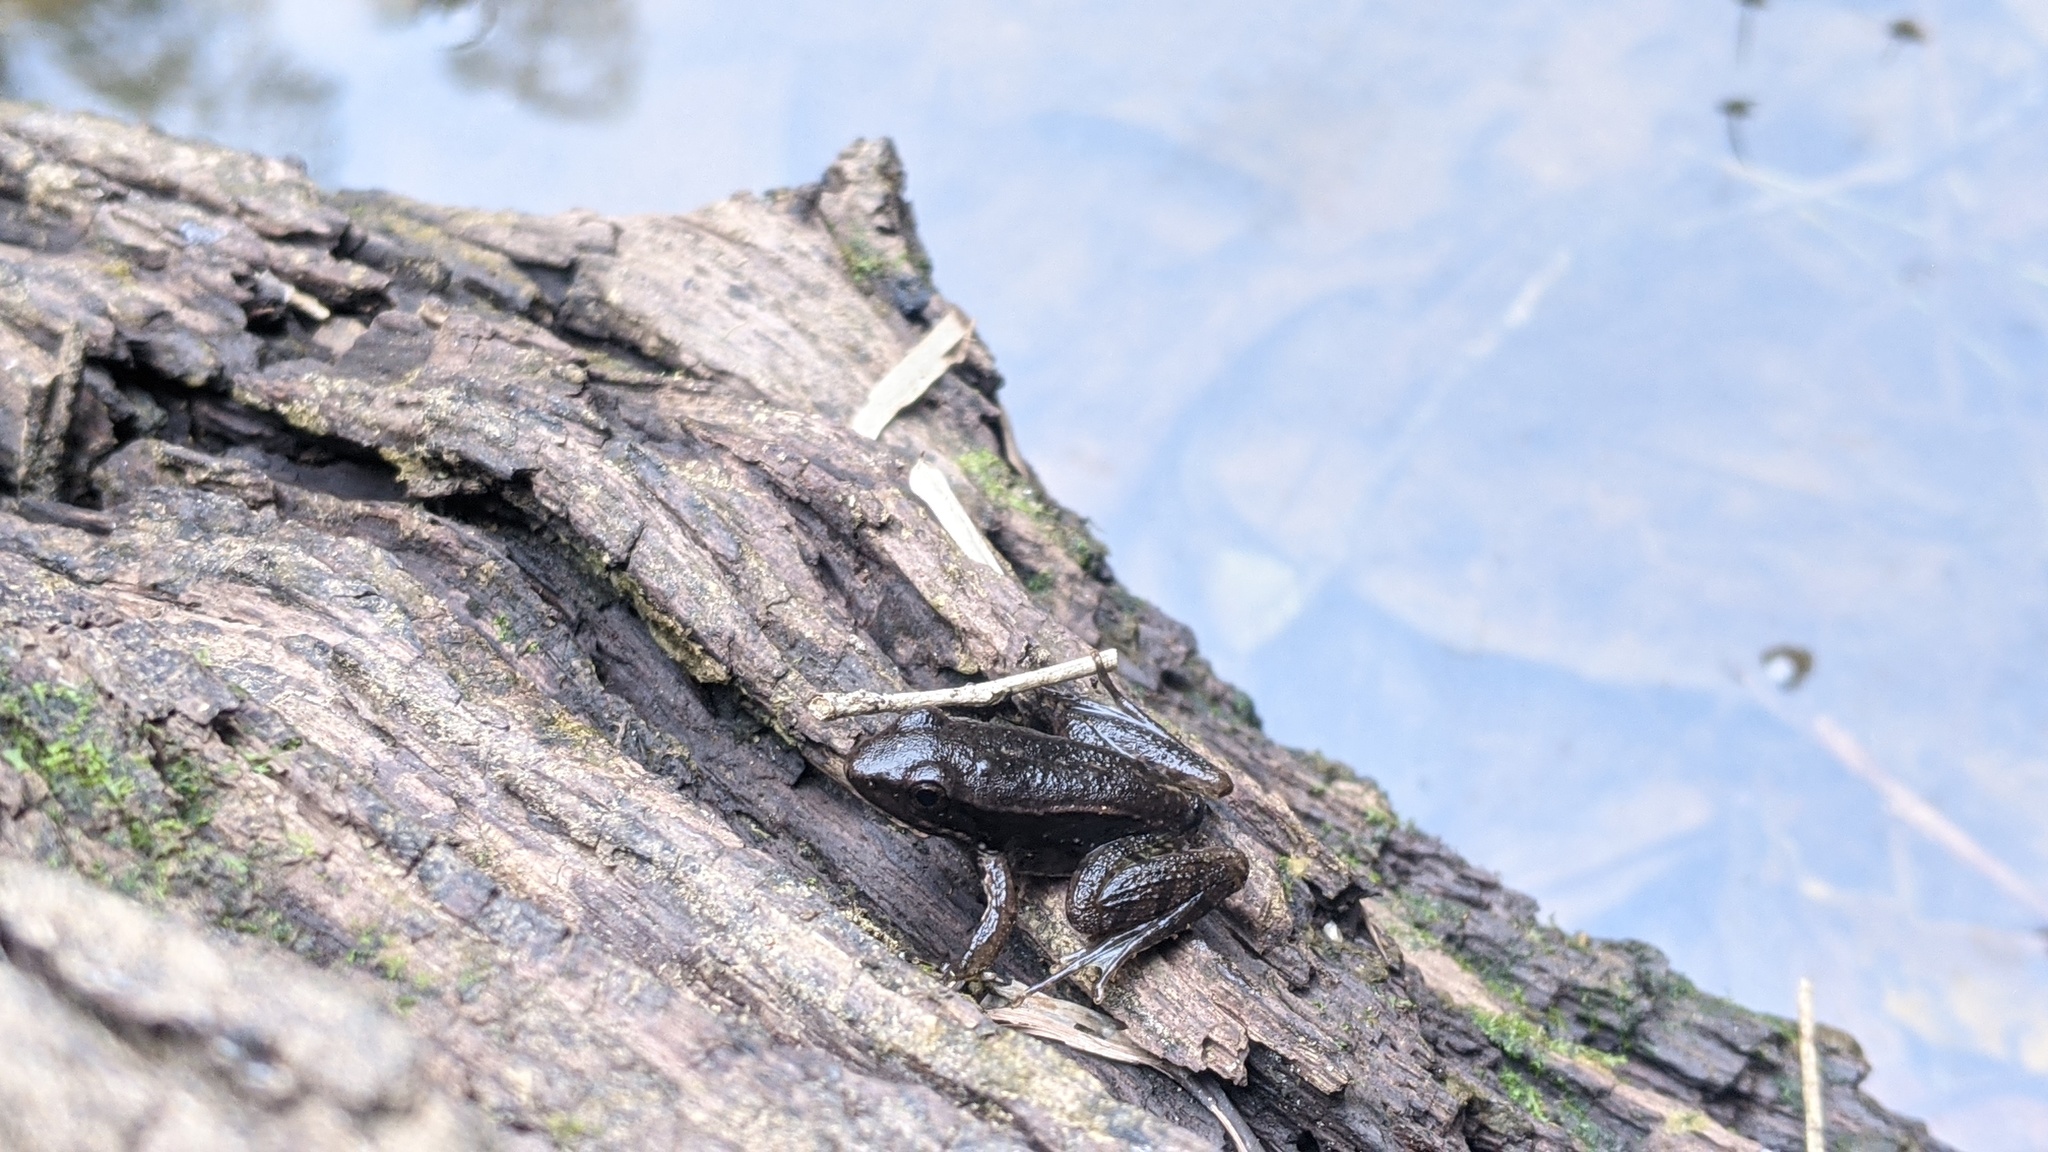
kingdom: Animalia
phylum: Chordata
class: Amphibia
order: Anura
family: Ranidae
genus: Nidirana
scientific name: Nidirana adenopleura
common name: Olive frog
